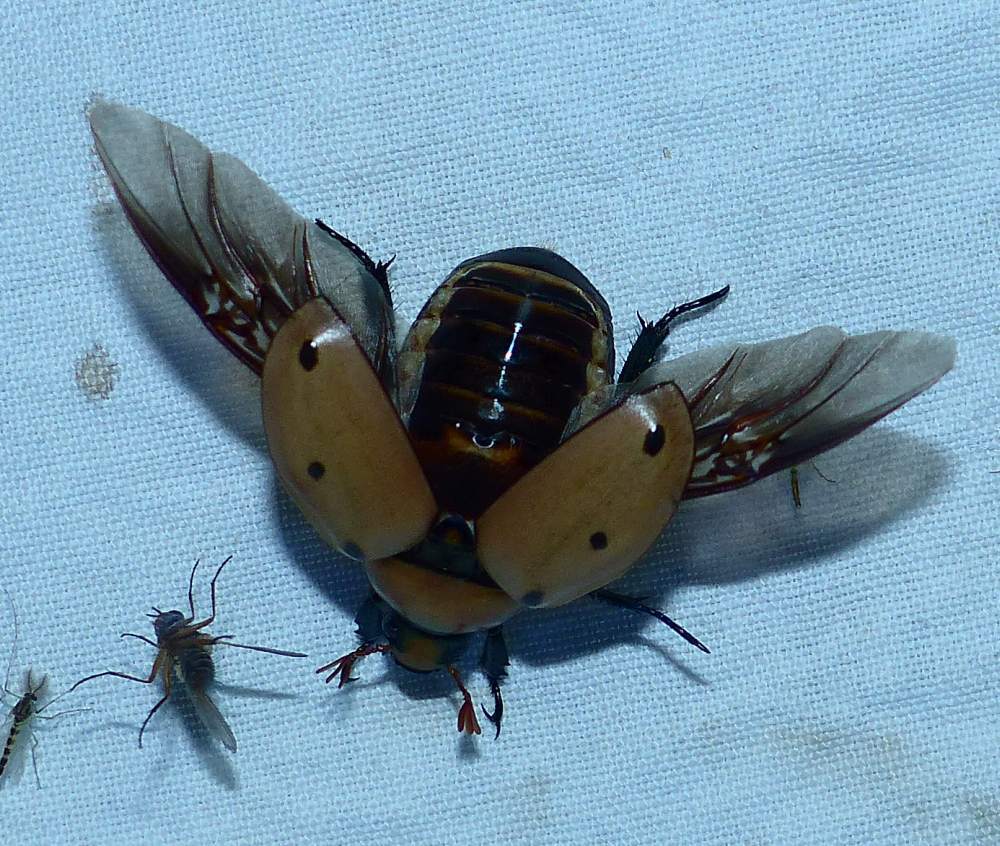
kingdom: Animalia
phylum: Arthropoda
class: Insecta
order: Coleoptera
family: Scarabaeidae
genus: Pelidnota
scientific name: Pelidnota punctata
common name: Grapevine beetle
